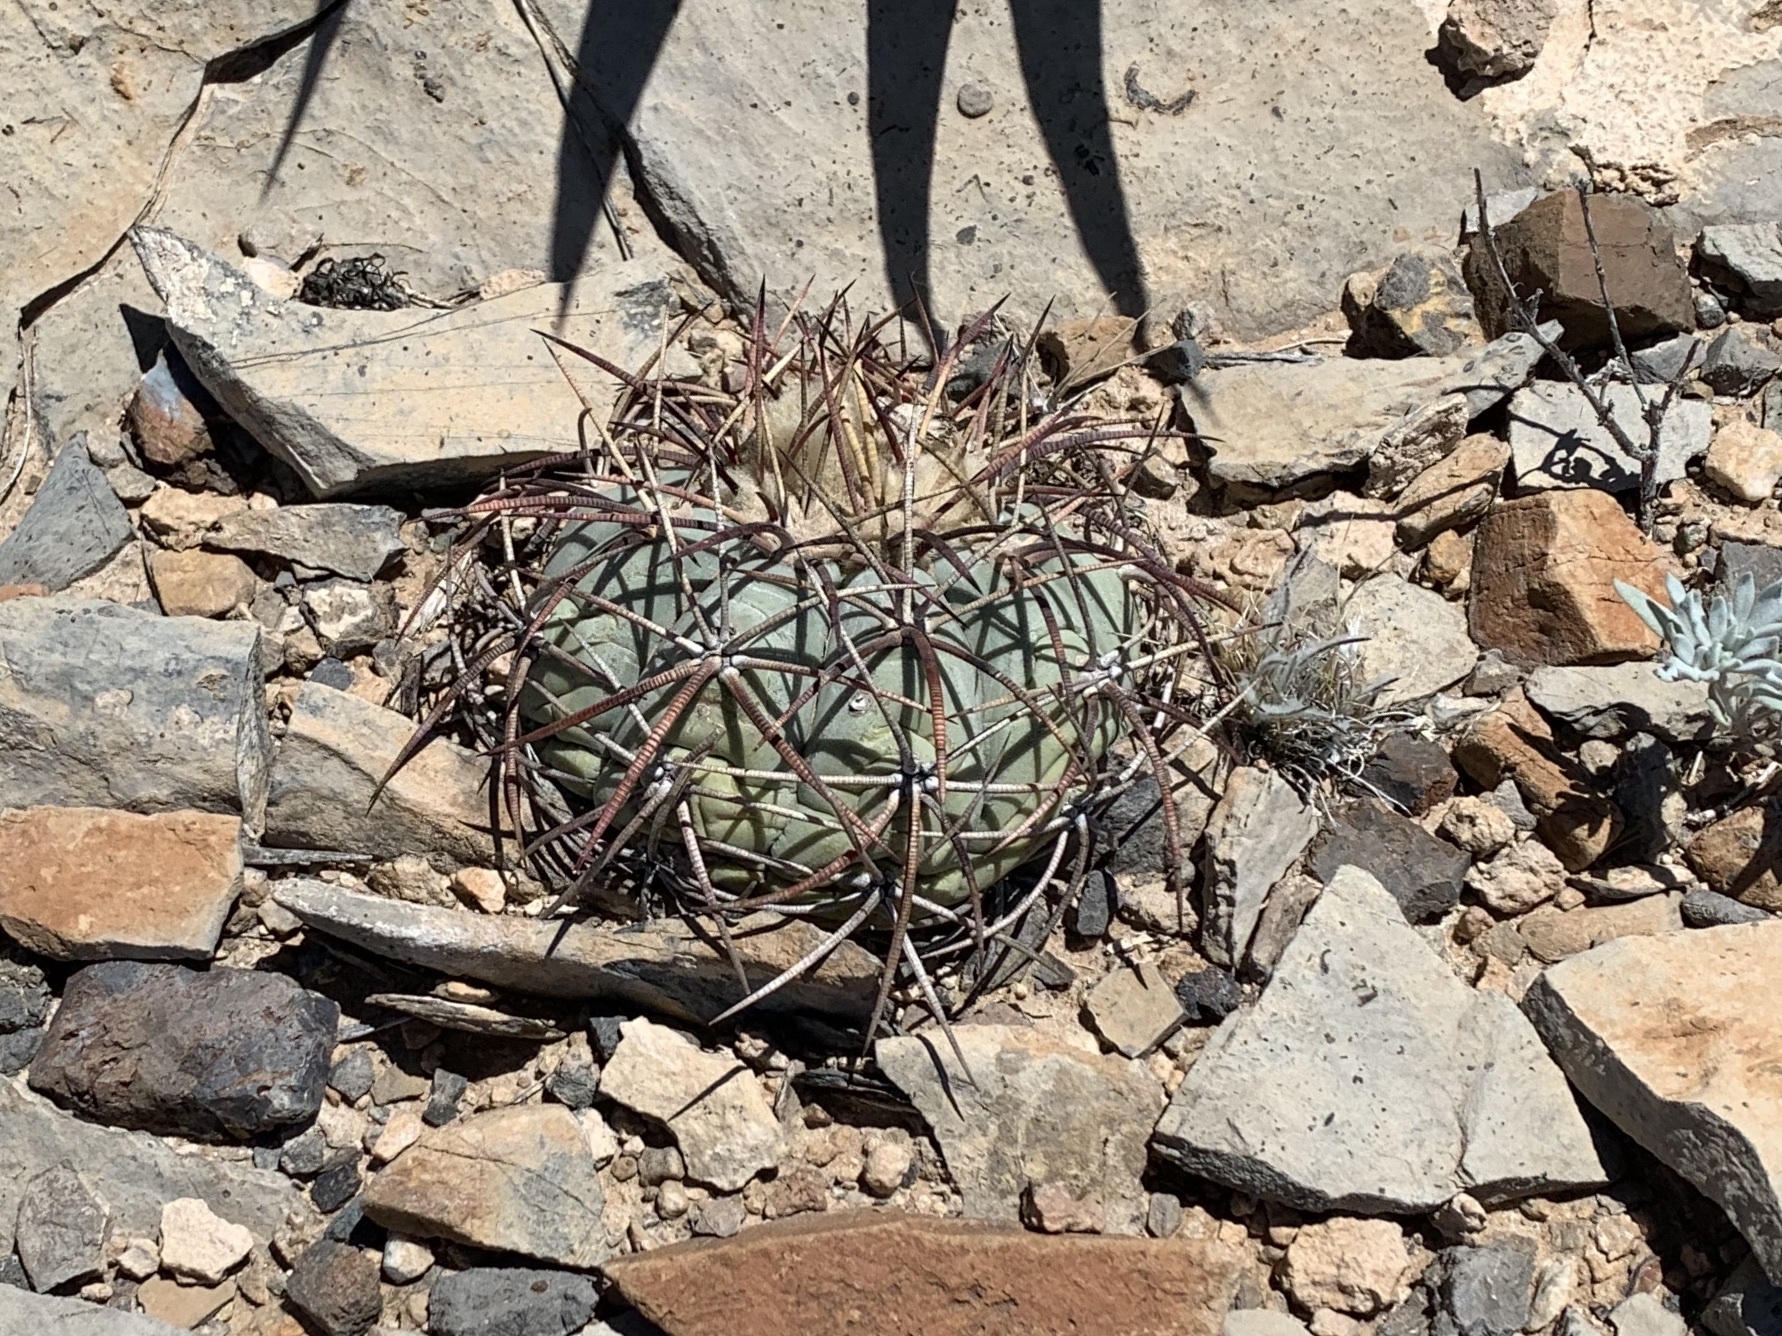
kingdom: Plantae
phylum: Tracheophyta
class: Magnoliopsida
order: Caryophyllales
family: Cactaceae
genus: Echinocactus
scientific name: Echinocactus horizonthalonius
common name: Devilshead
